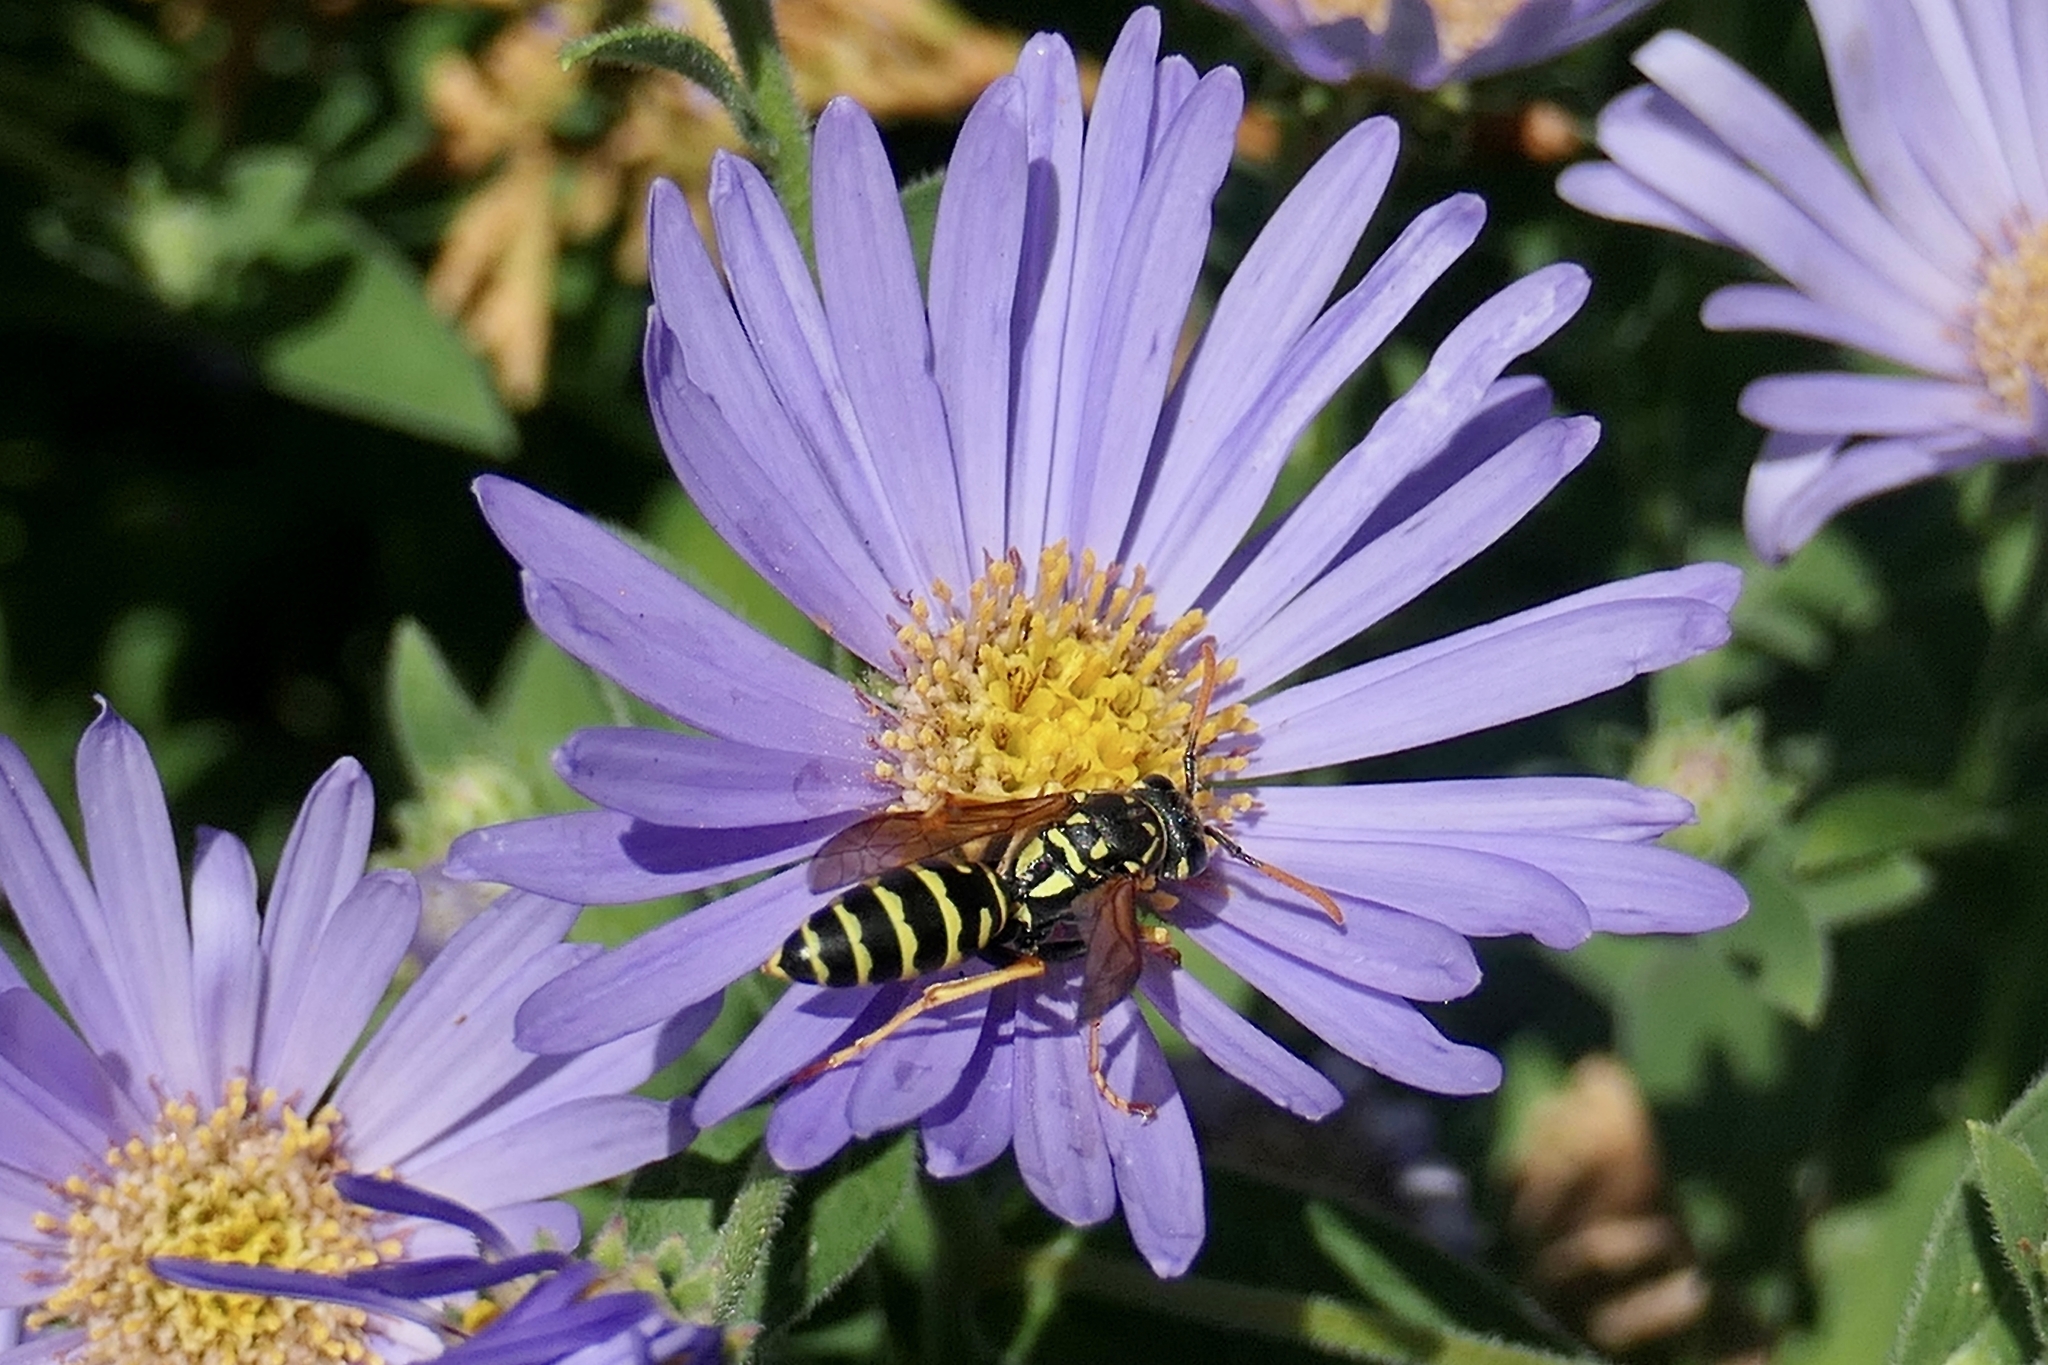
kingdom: Animalia
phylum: Arthropoda
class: Insecta
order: Hymenoptera
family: Eumenidae
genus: Polistes
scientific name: Polistes dominula
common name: Paper wasp
